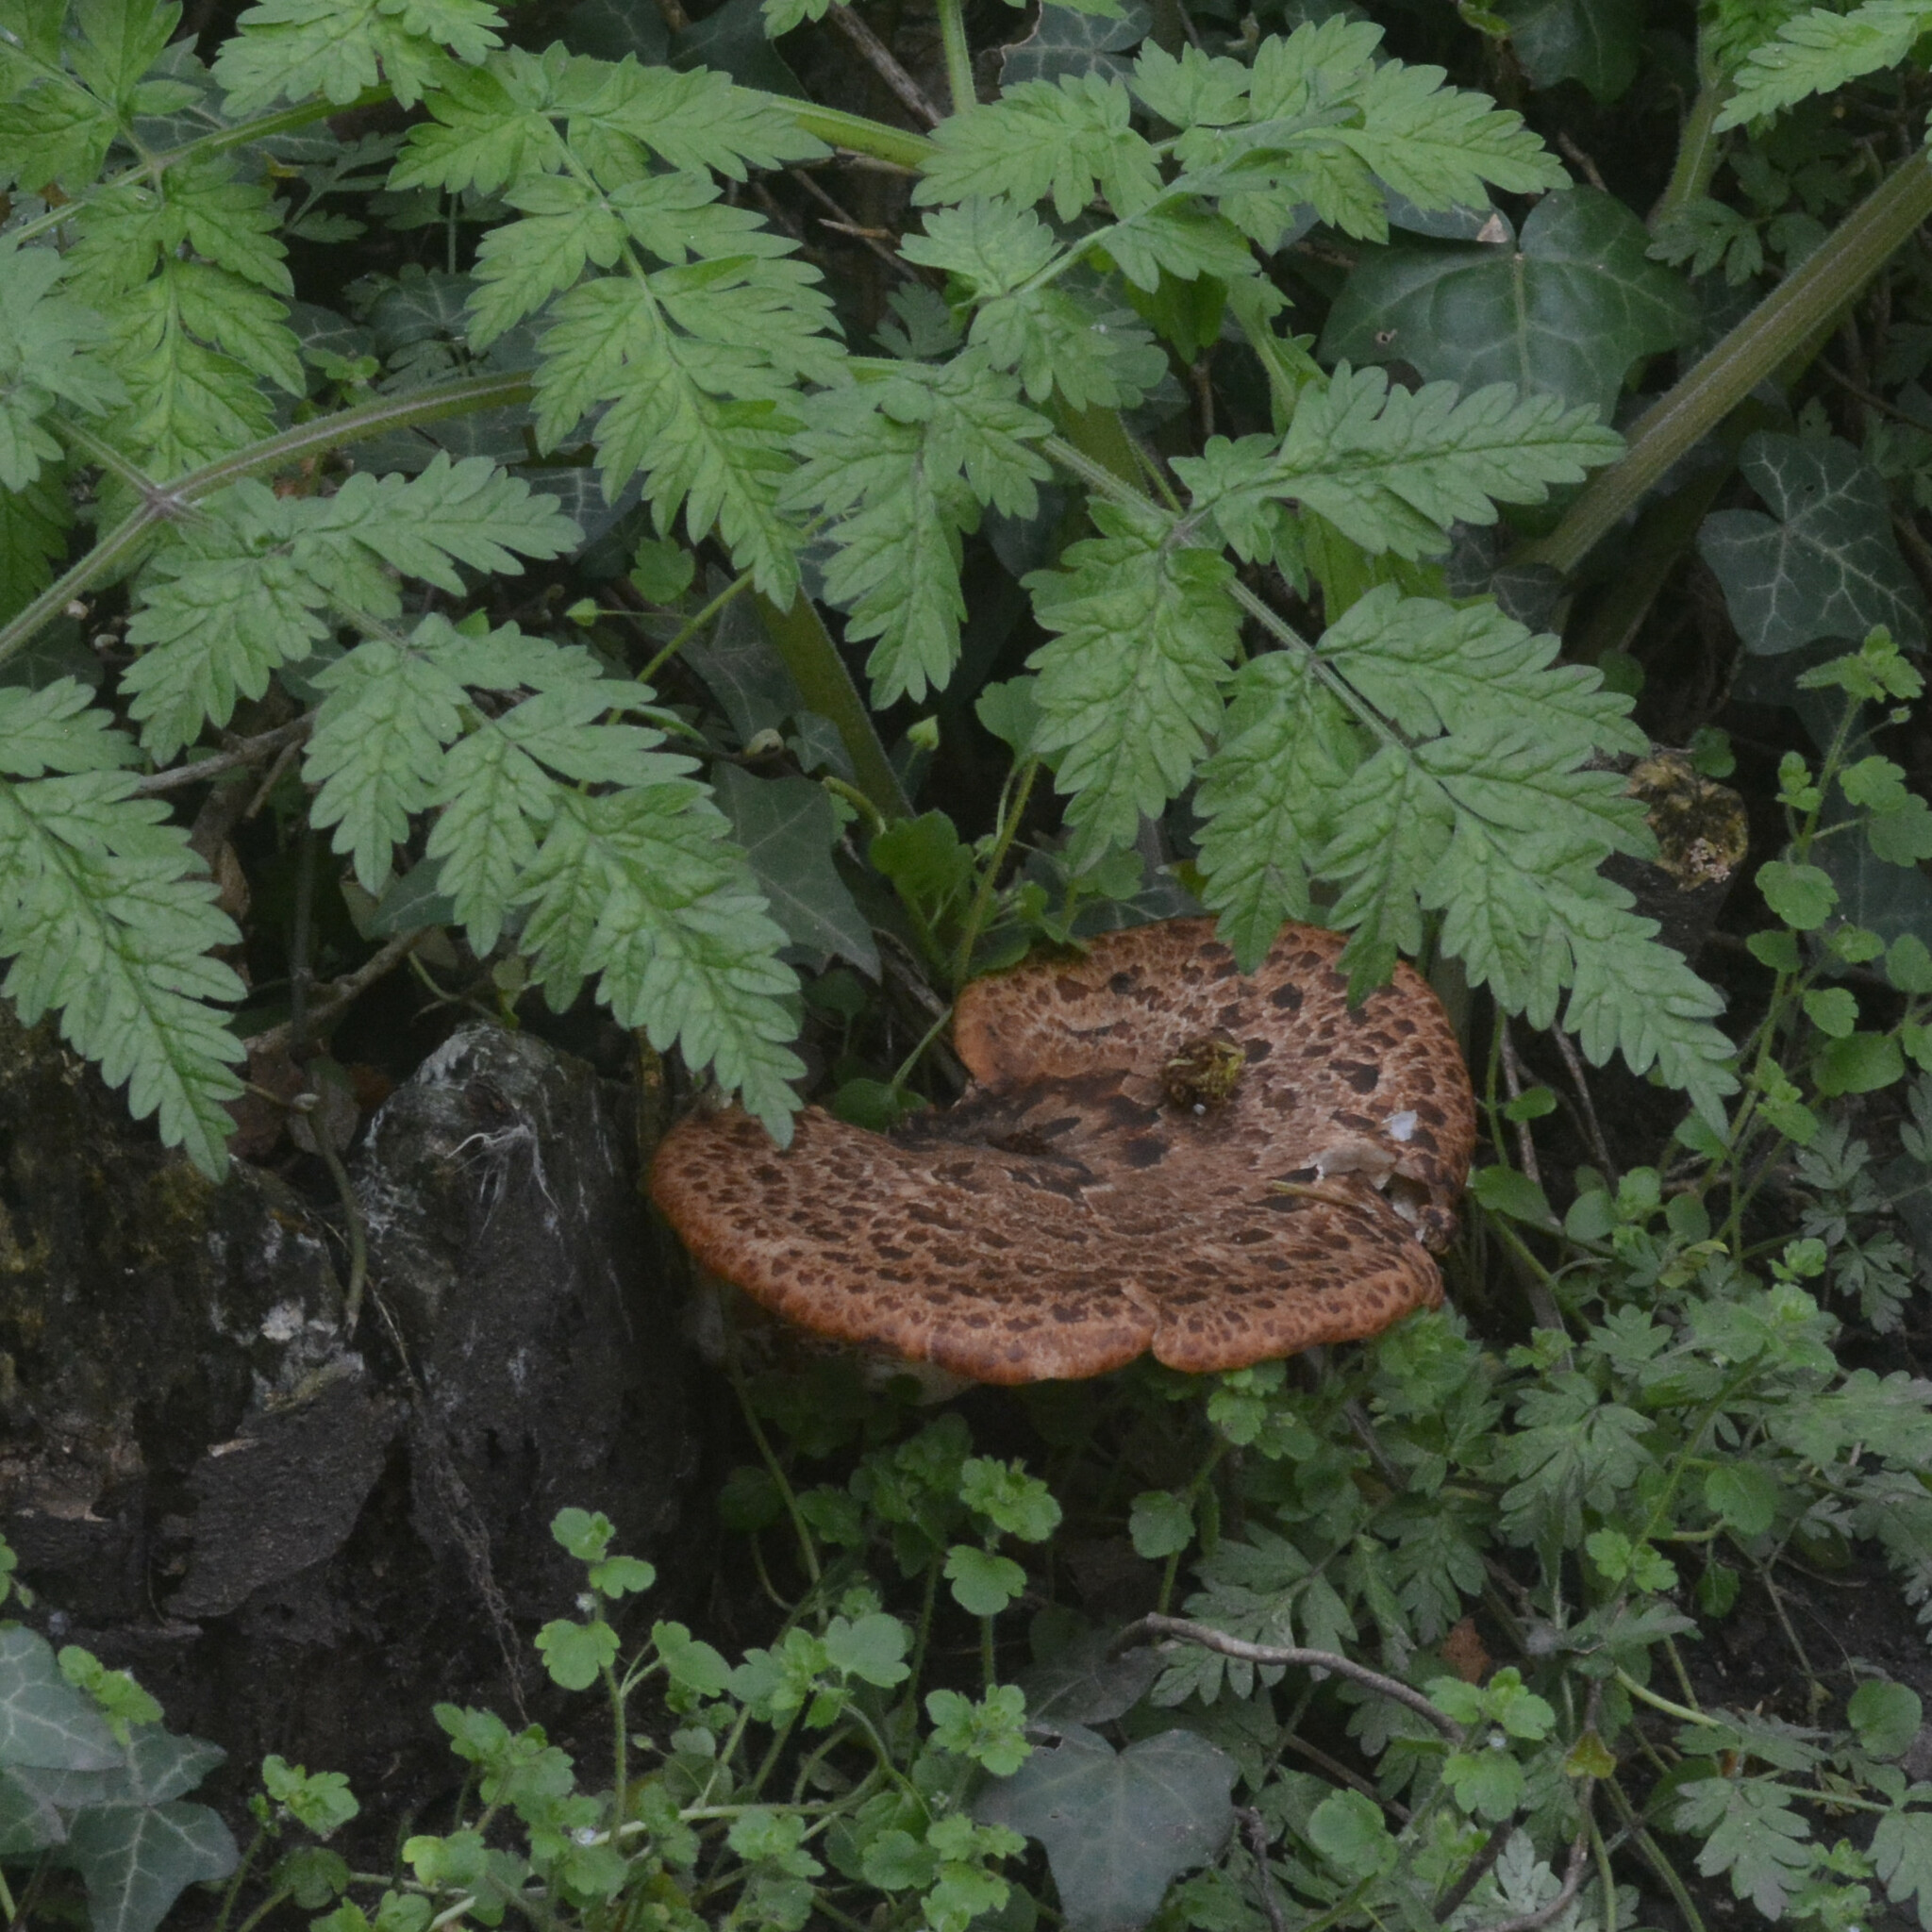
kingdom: Fungi
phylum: Basidiomycota
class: Agaricomycetes
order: Polyporales
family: Polyporaceae
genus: Cerioporus
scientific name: Cerioporus squamosus
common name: Dryad's saddle
